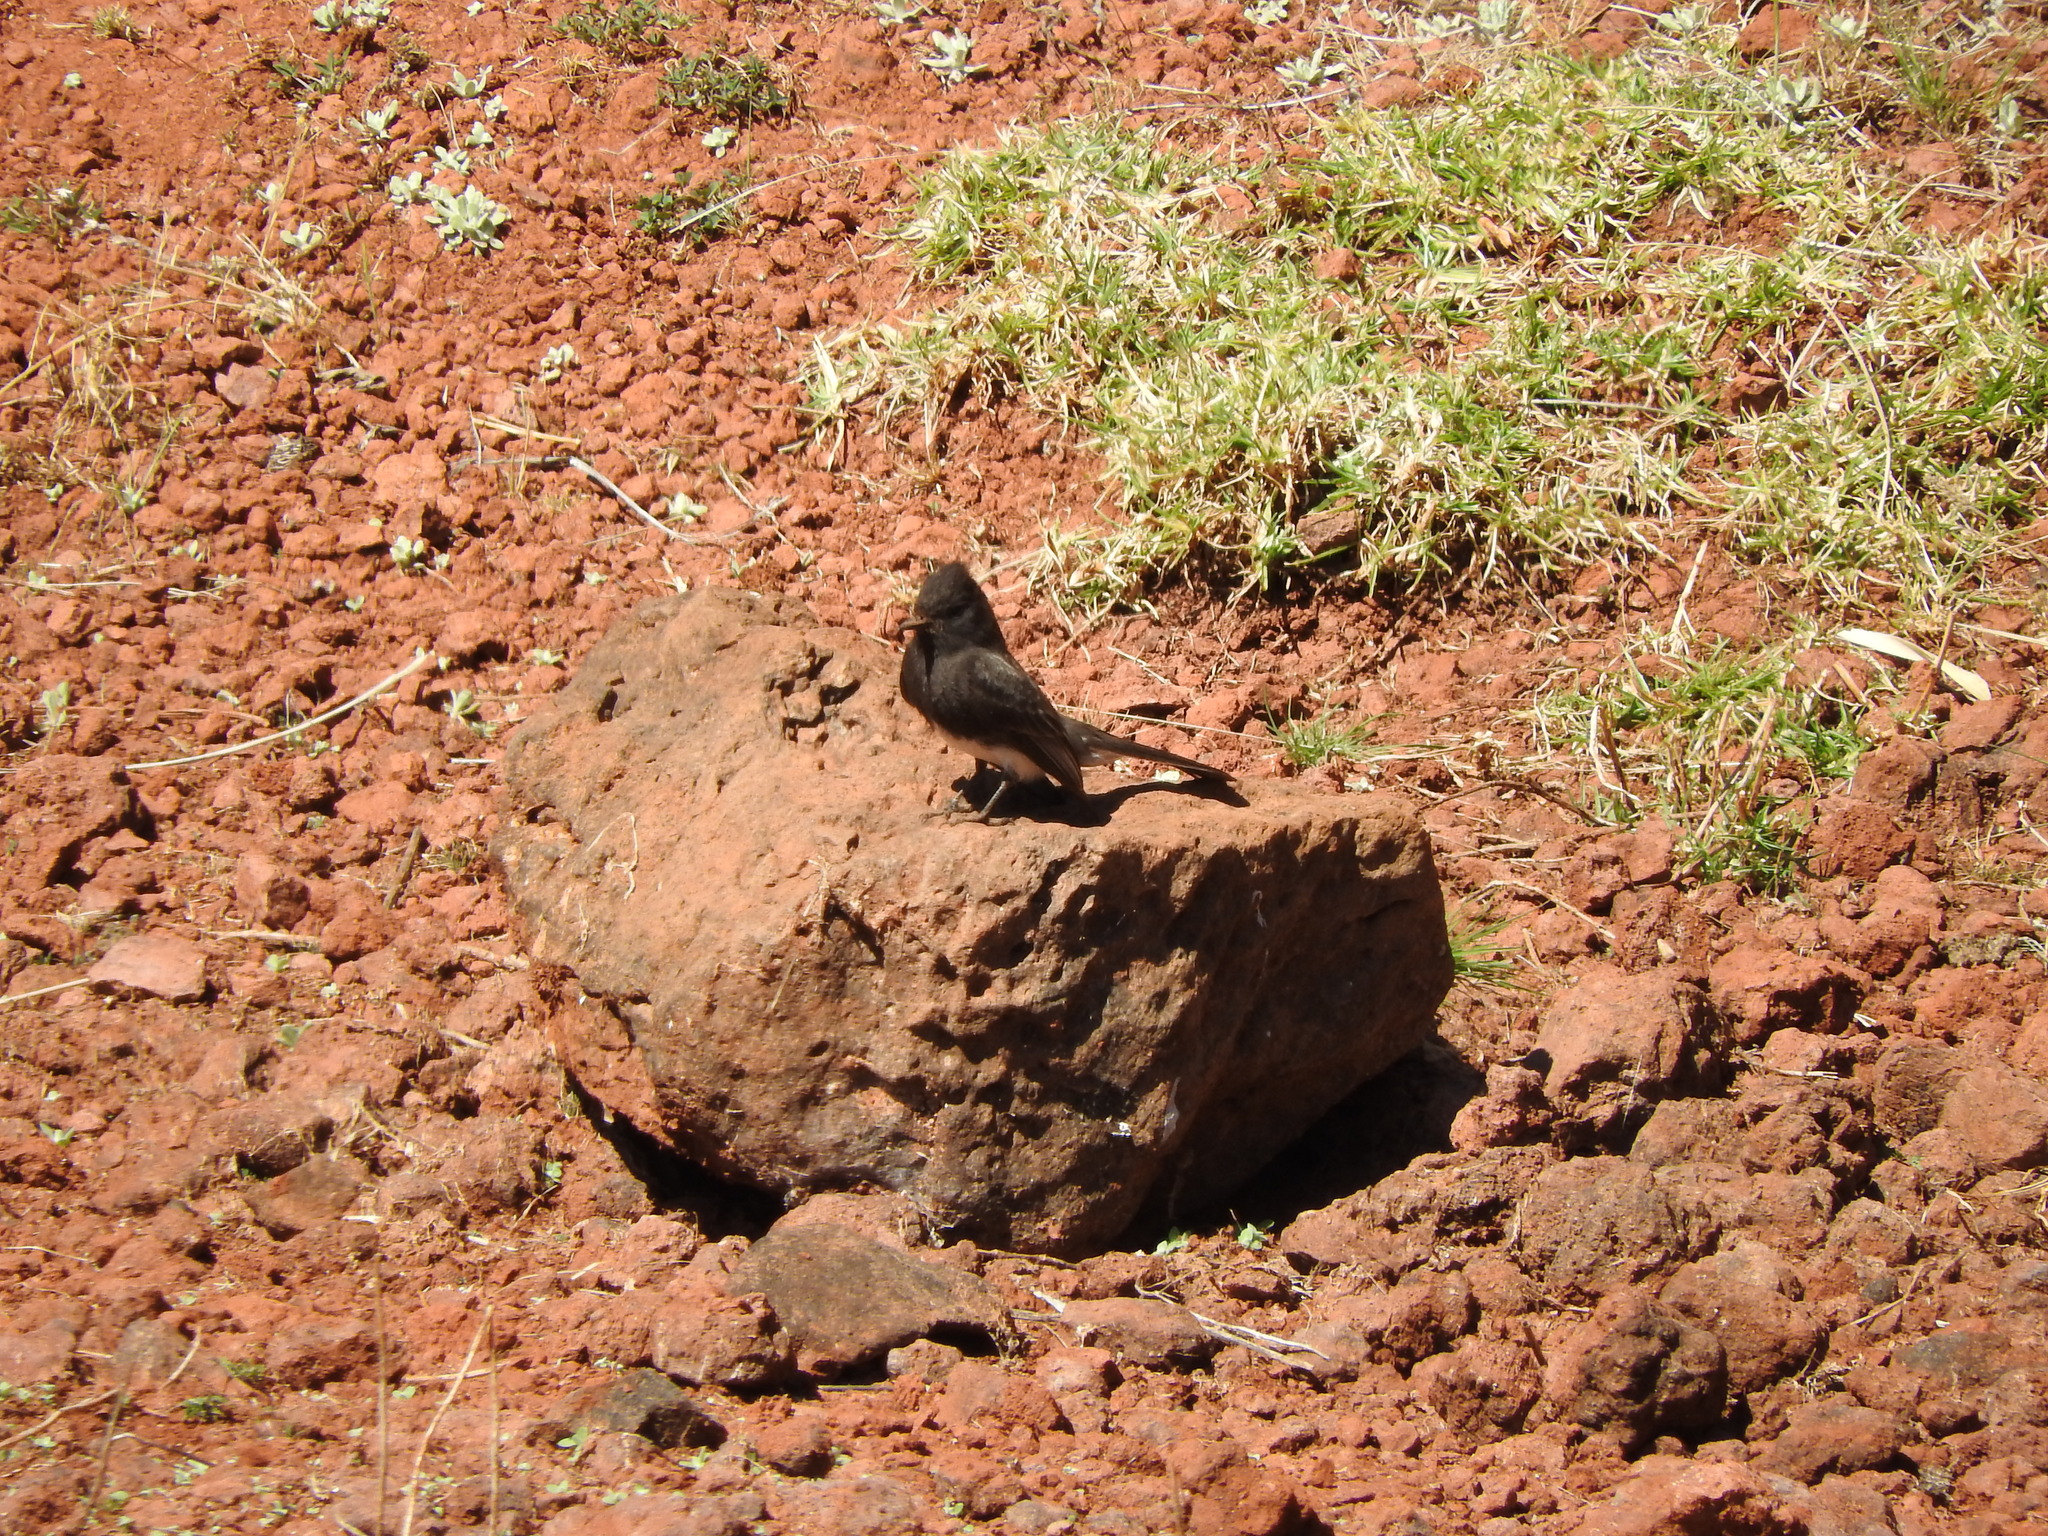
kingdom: Animalia
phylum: Chordata
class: Aves
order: Passeriformes
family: Tyrannidae
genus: Sayornis
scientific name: Sayornis nigricans
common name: Black phoebe
